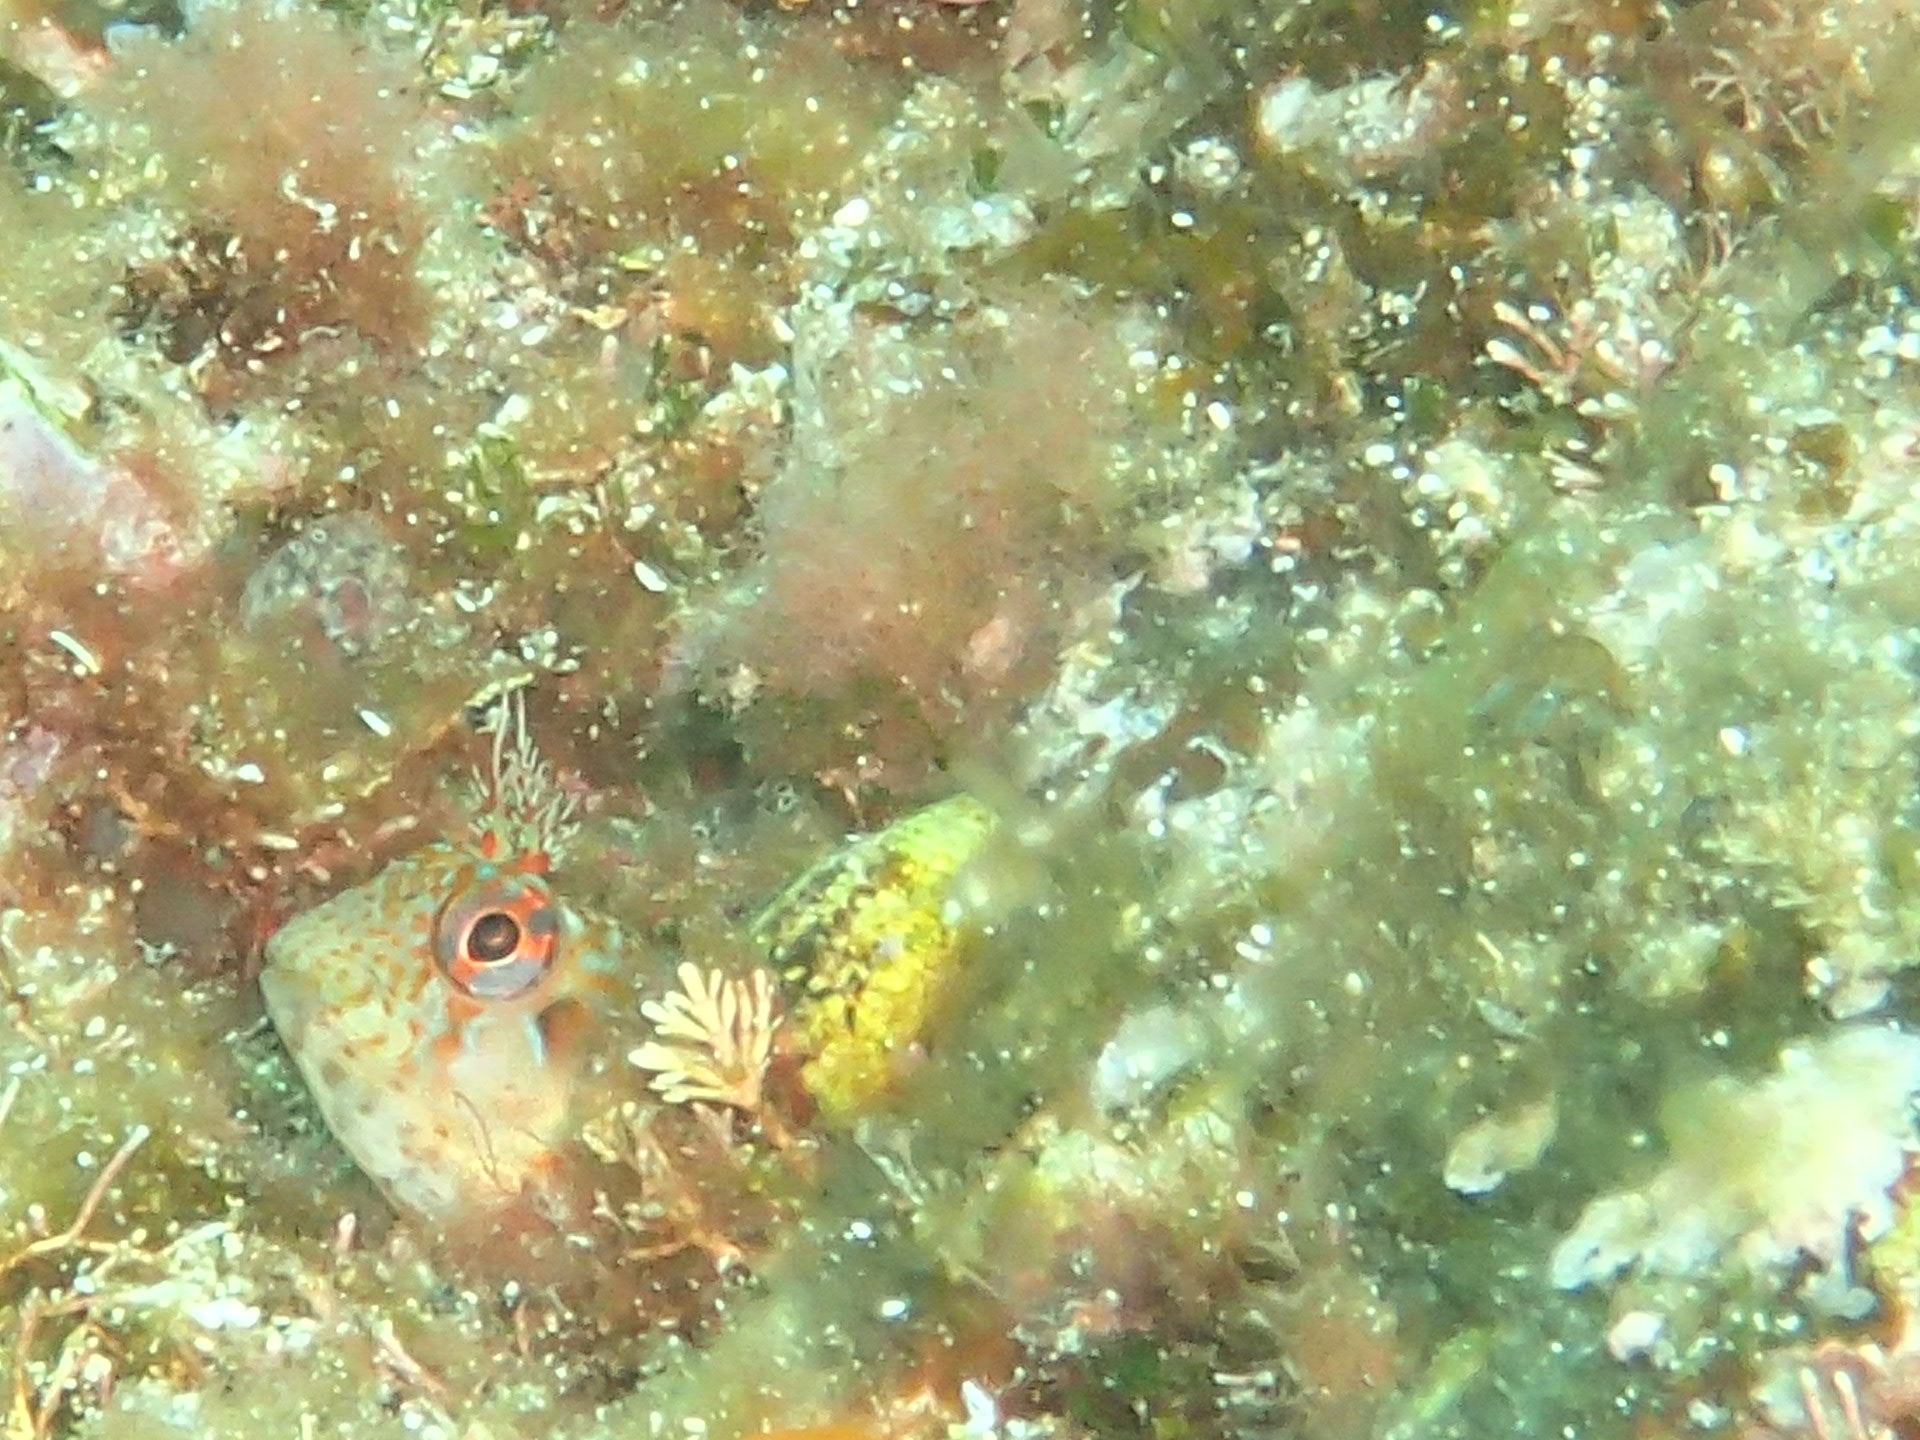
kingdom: Animalia
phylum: Chordata
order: Perciformes
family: Blenniidae
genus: Parablennius
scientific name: Parablennius ruber
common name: Portuguese blenny
